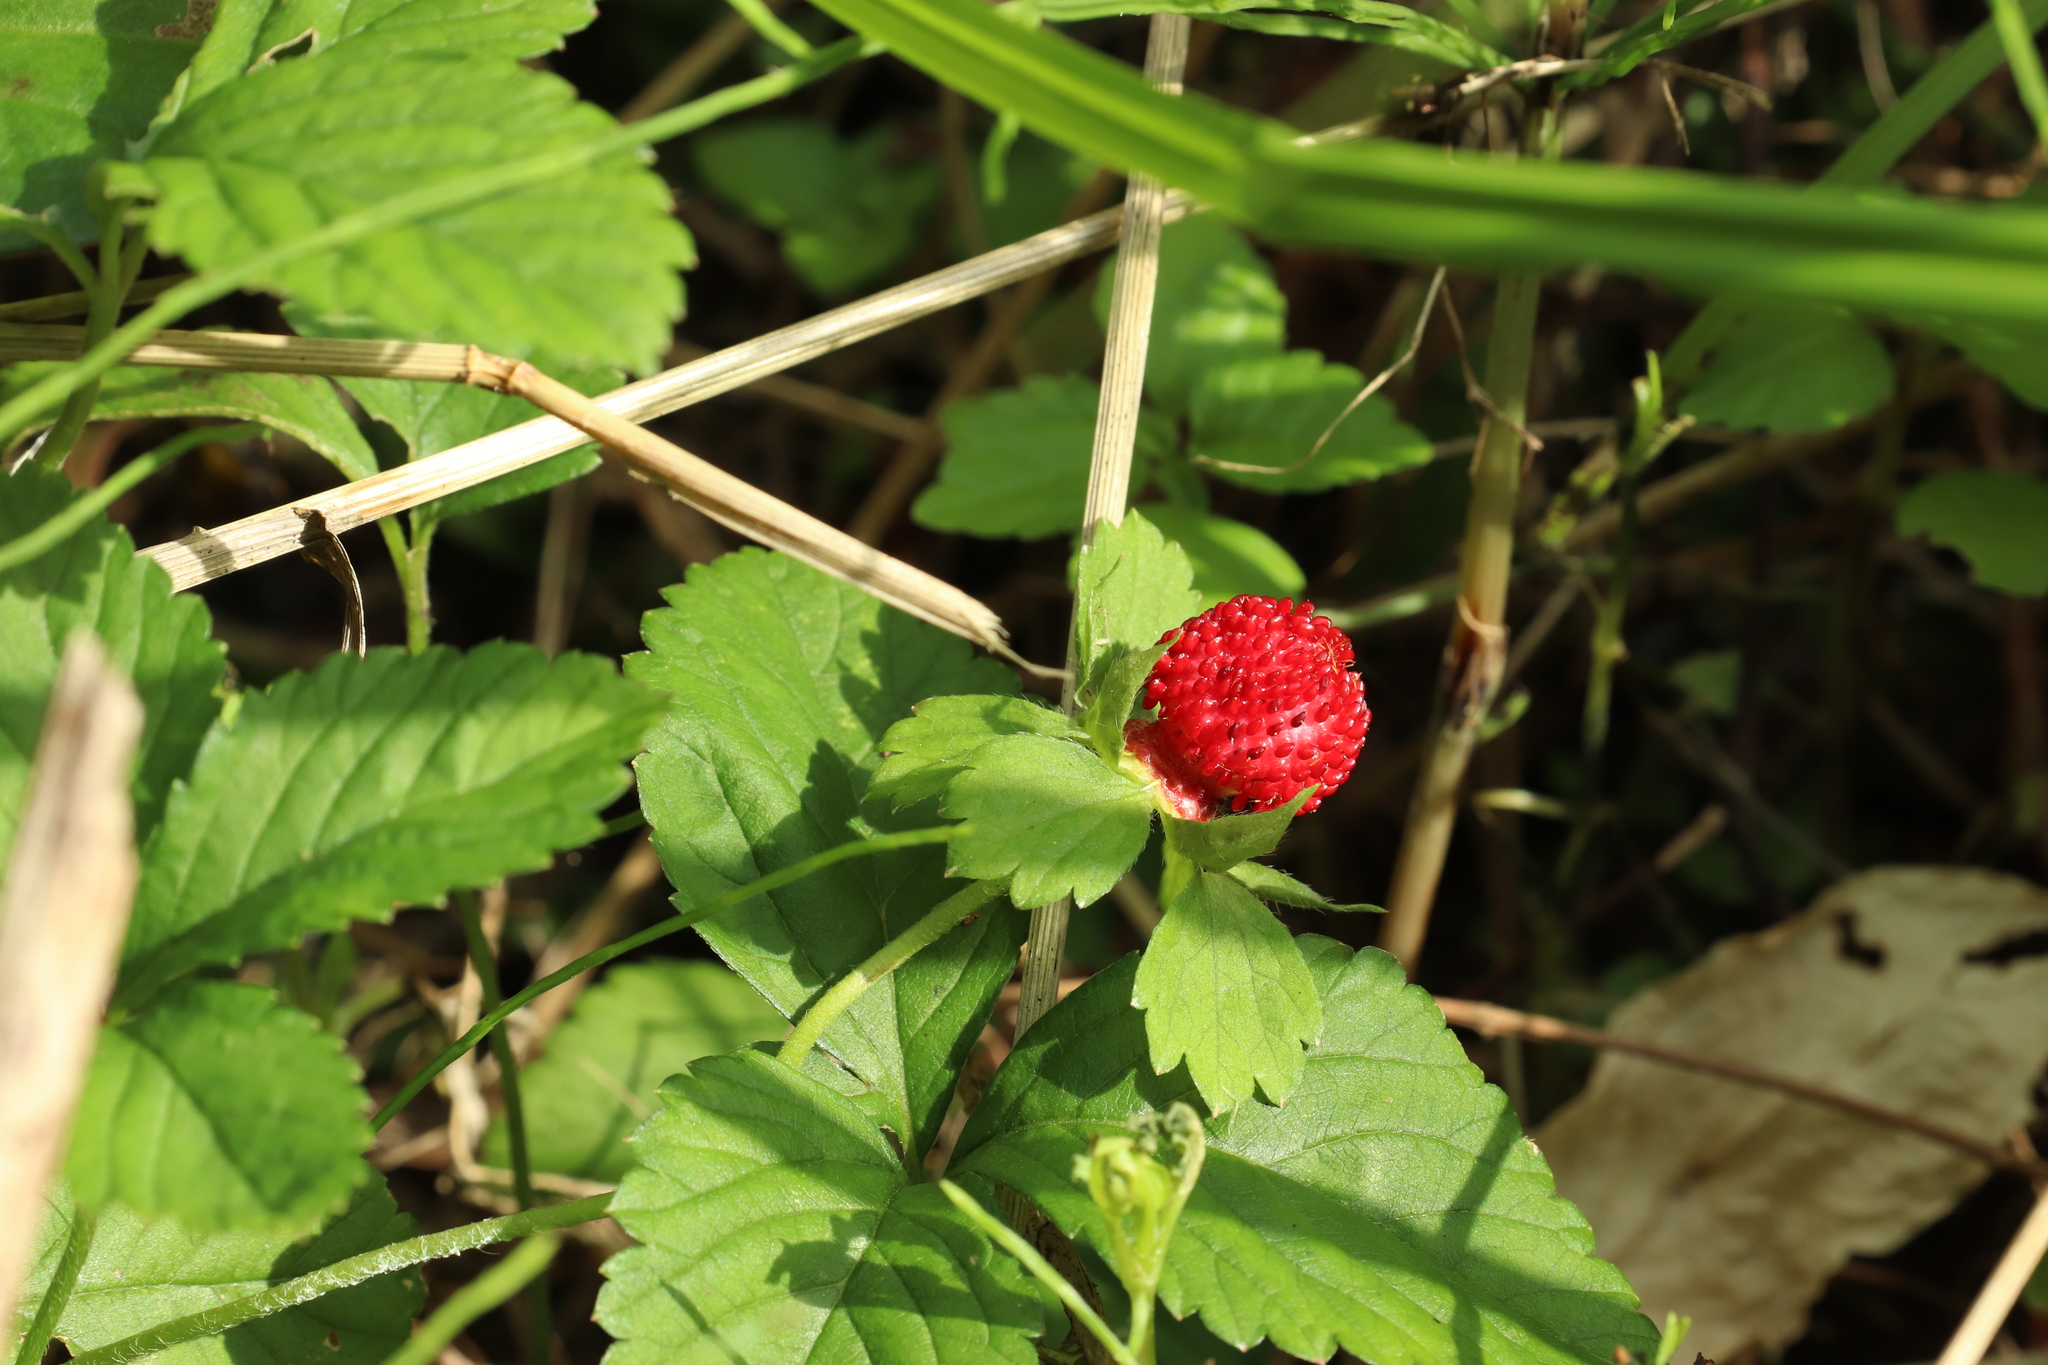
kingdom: Plantae
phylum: Tracheophyta
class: Magnoliopsida
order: Rosales
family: Rosaceae
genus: Potentilla
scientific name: Potentilla indica
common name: Yellow-flowered strawberry
